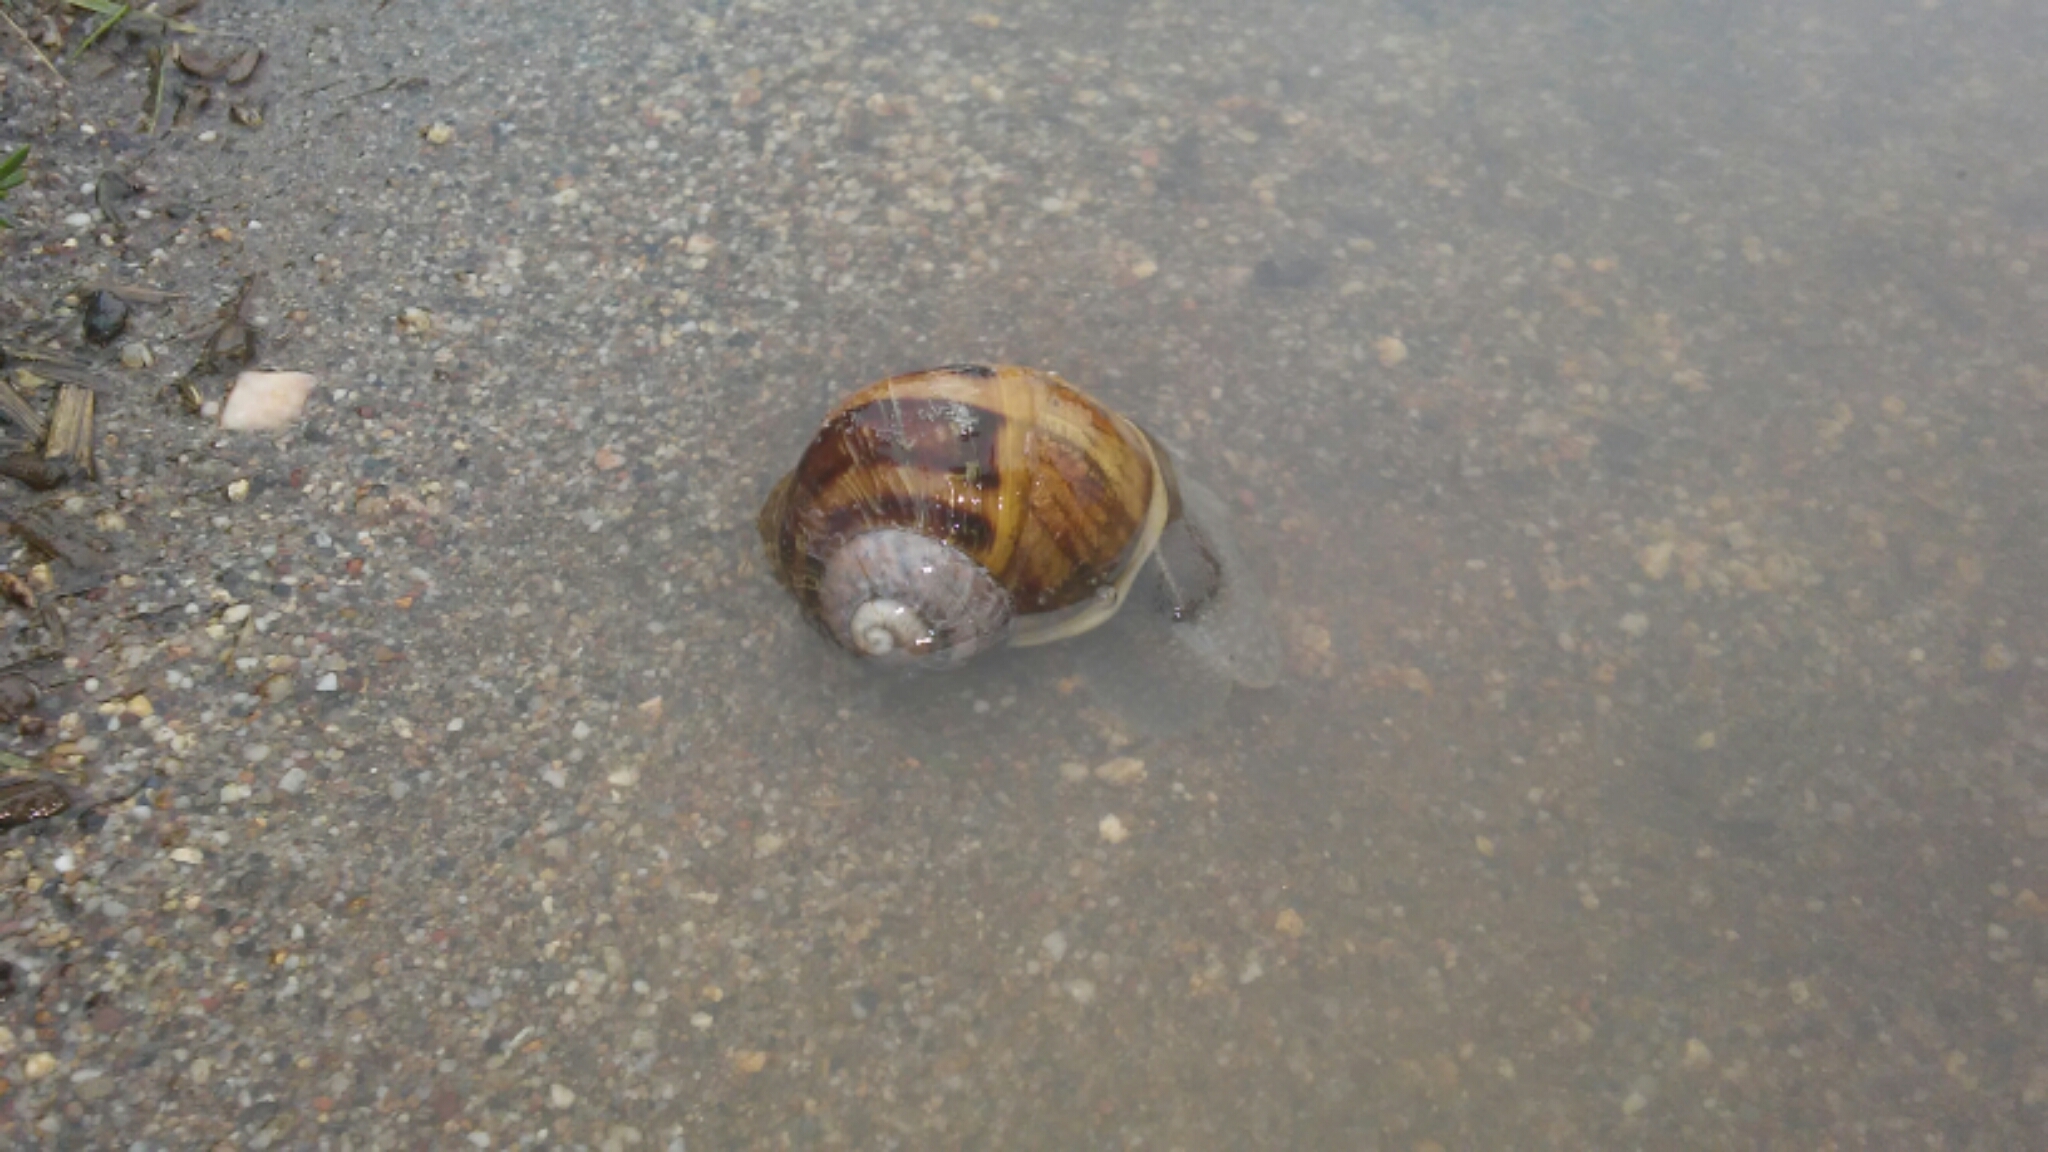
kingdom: Animalia
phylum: Mollusca
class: Gastropoda
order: Stylommatophora
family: Helicidae
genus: Cornu
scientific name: Cornu aspersum
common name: Brown garden snail
